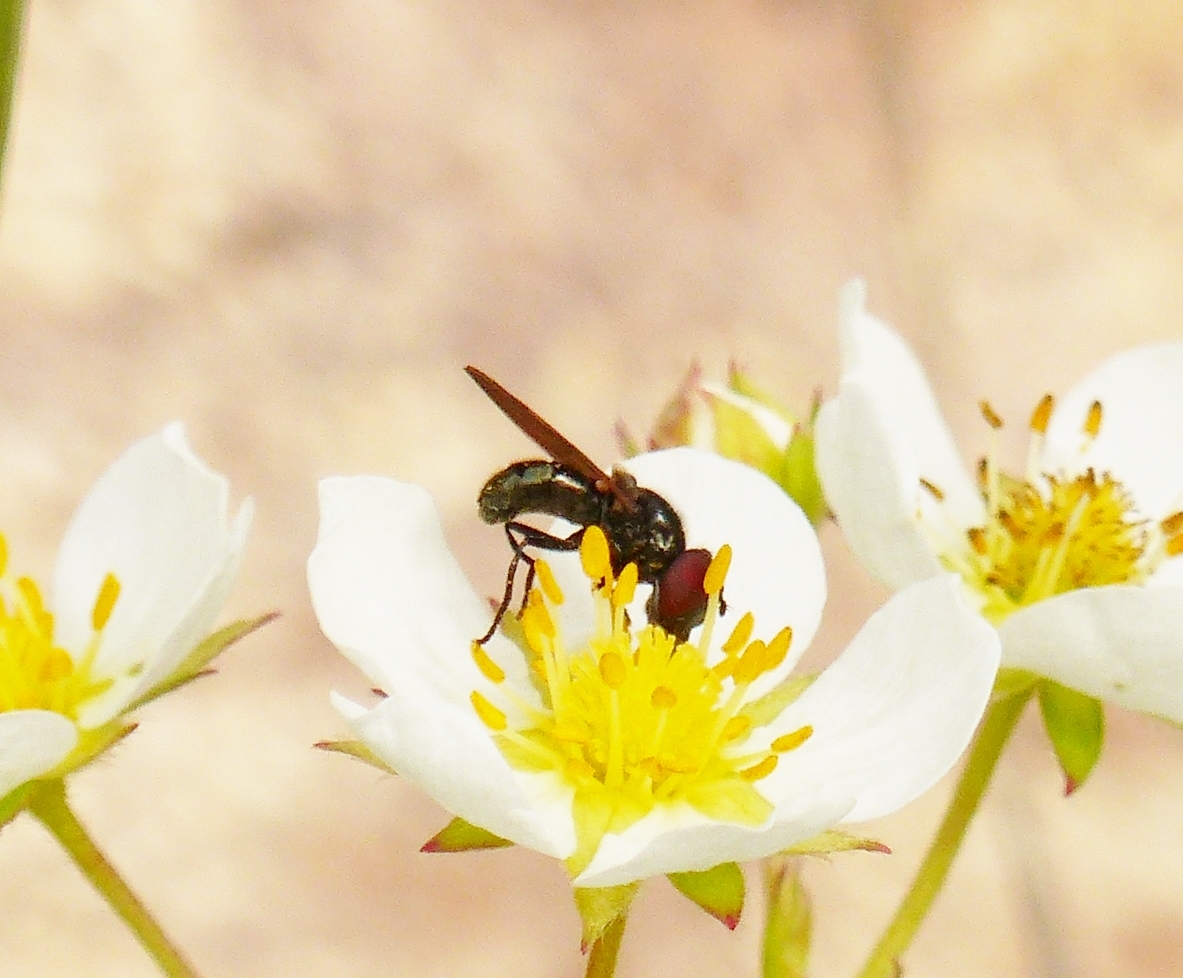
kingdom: Animalia
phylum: Arthropoda
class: Insecta
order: Diptera
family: Syrphidae
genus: Chrysosyrphus
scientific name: Chrysosyrphus latus
